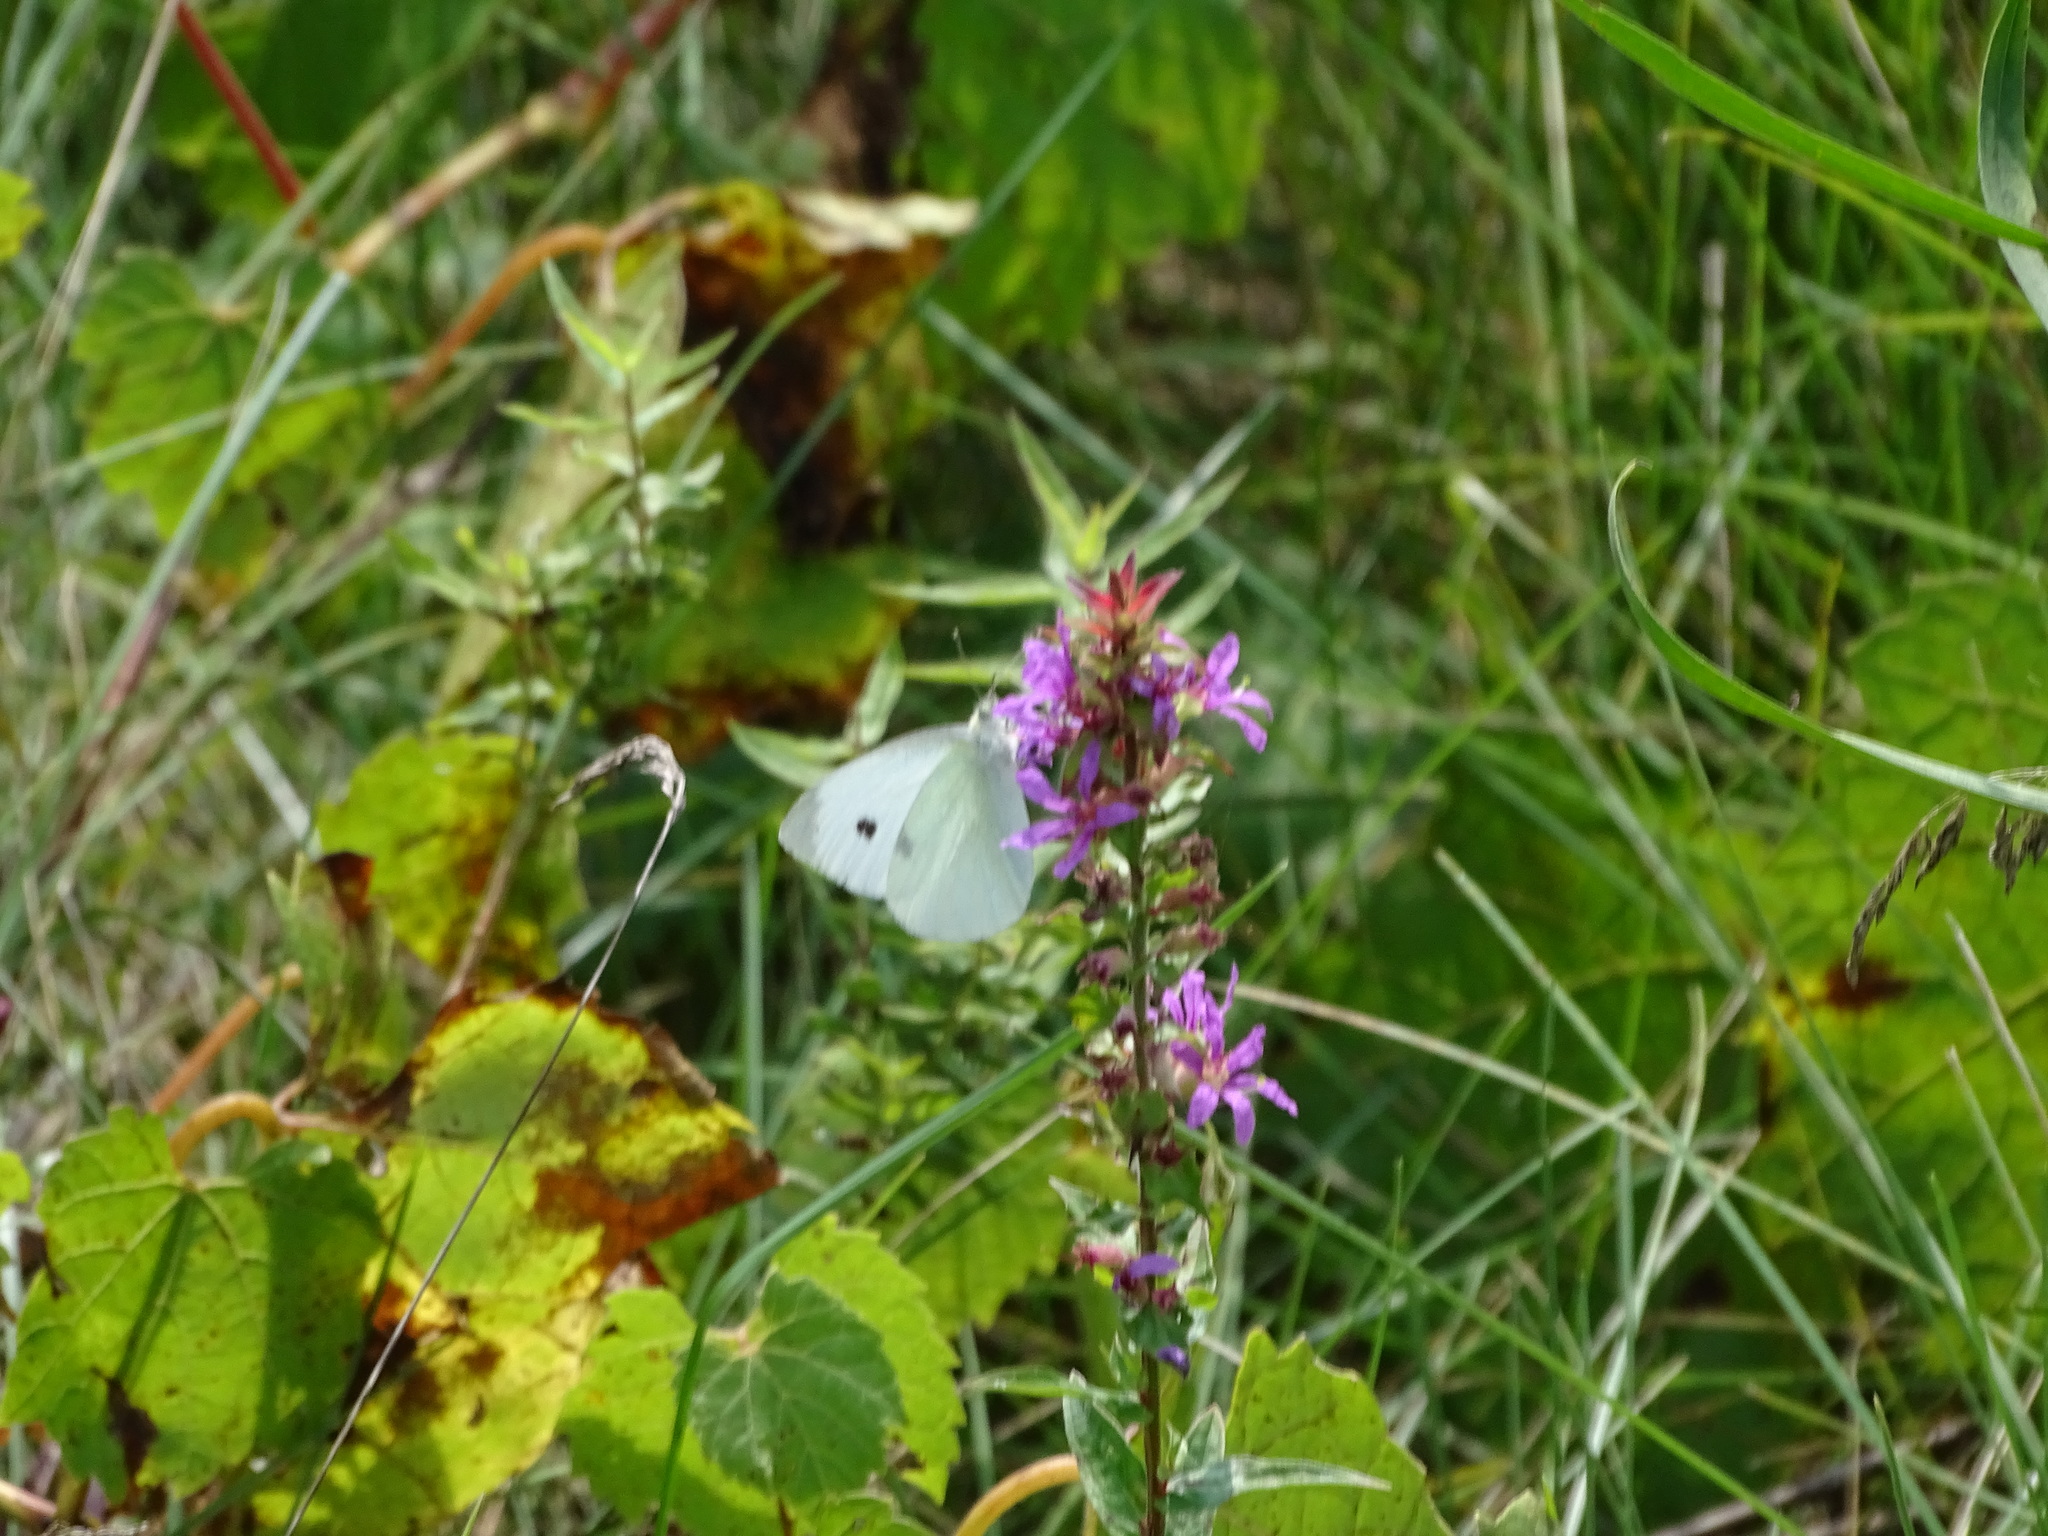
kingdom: Animalia
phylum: Arthropoda
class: Insecta
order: Lepidoptera
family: Pieridae
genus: Pieris
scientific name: Pieris rapae
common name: Small white
